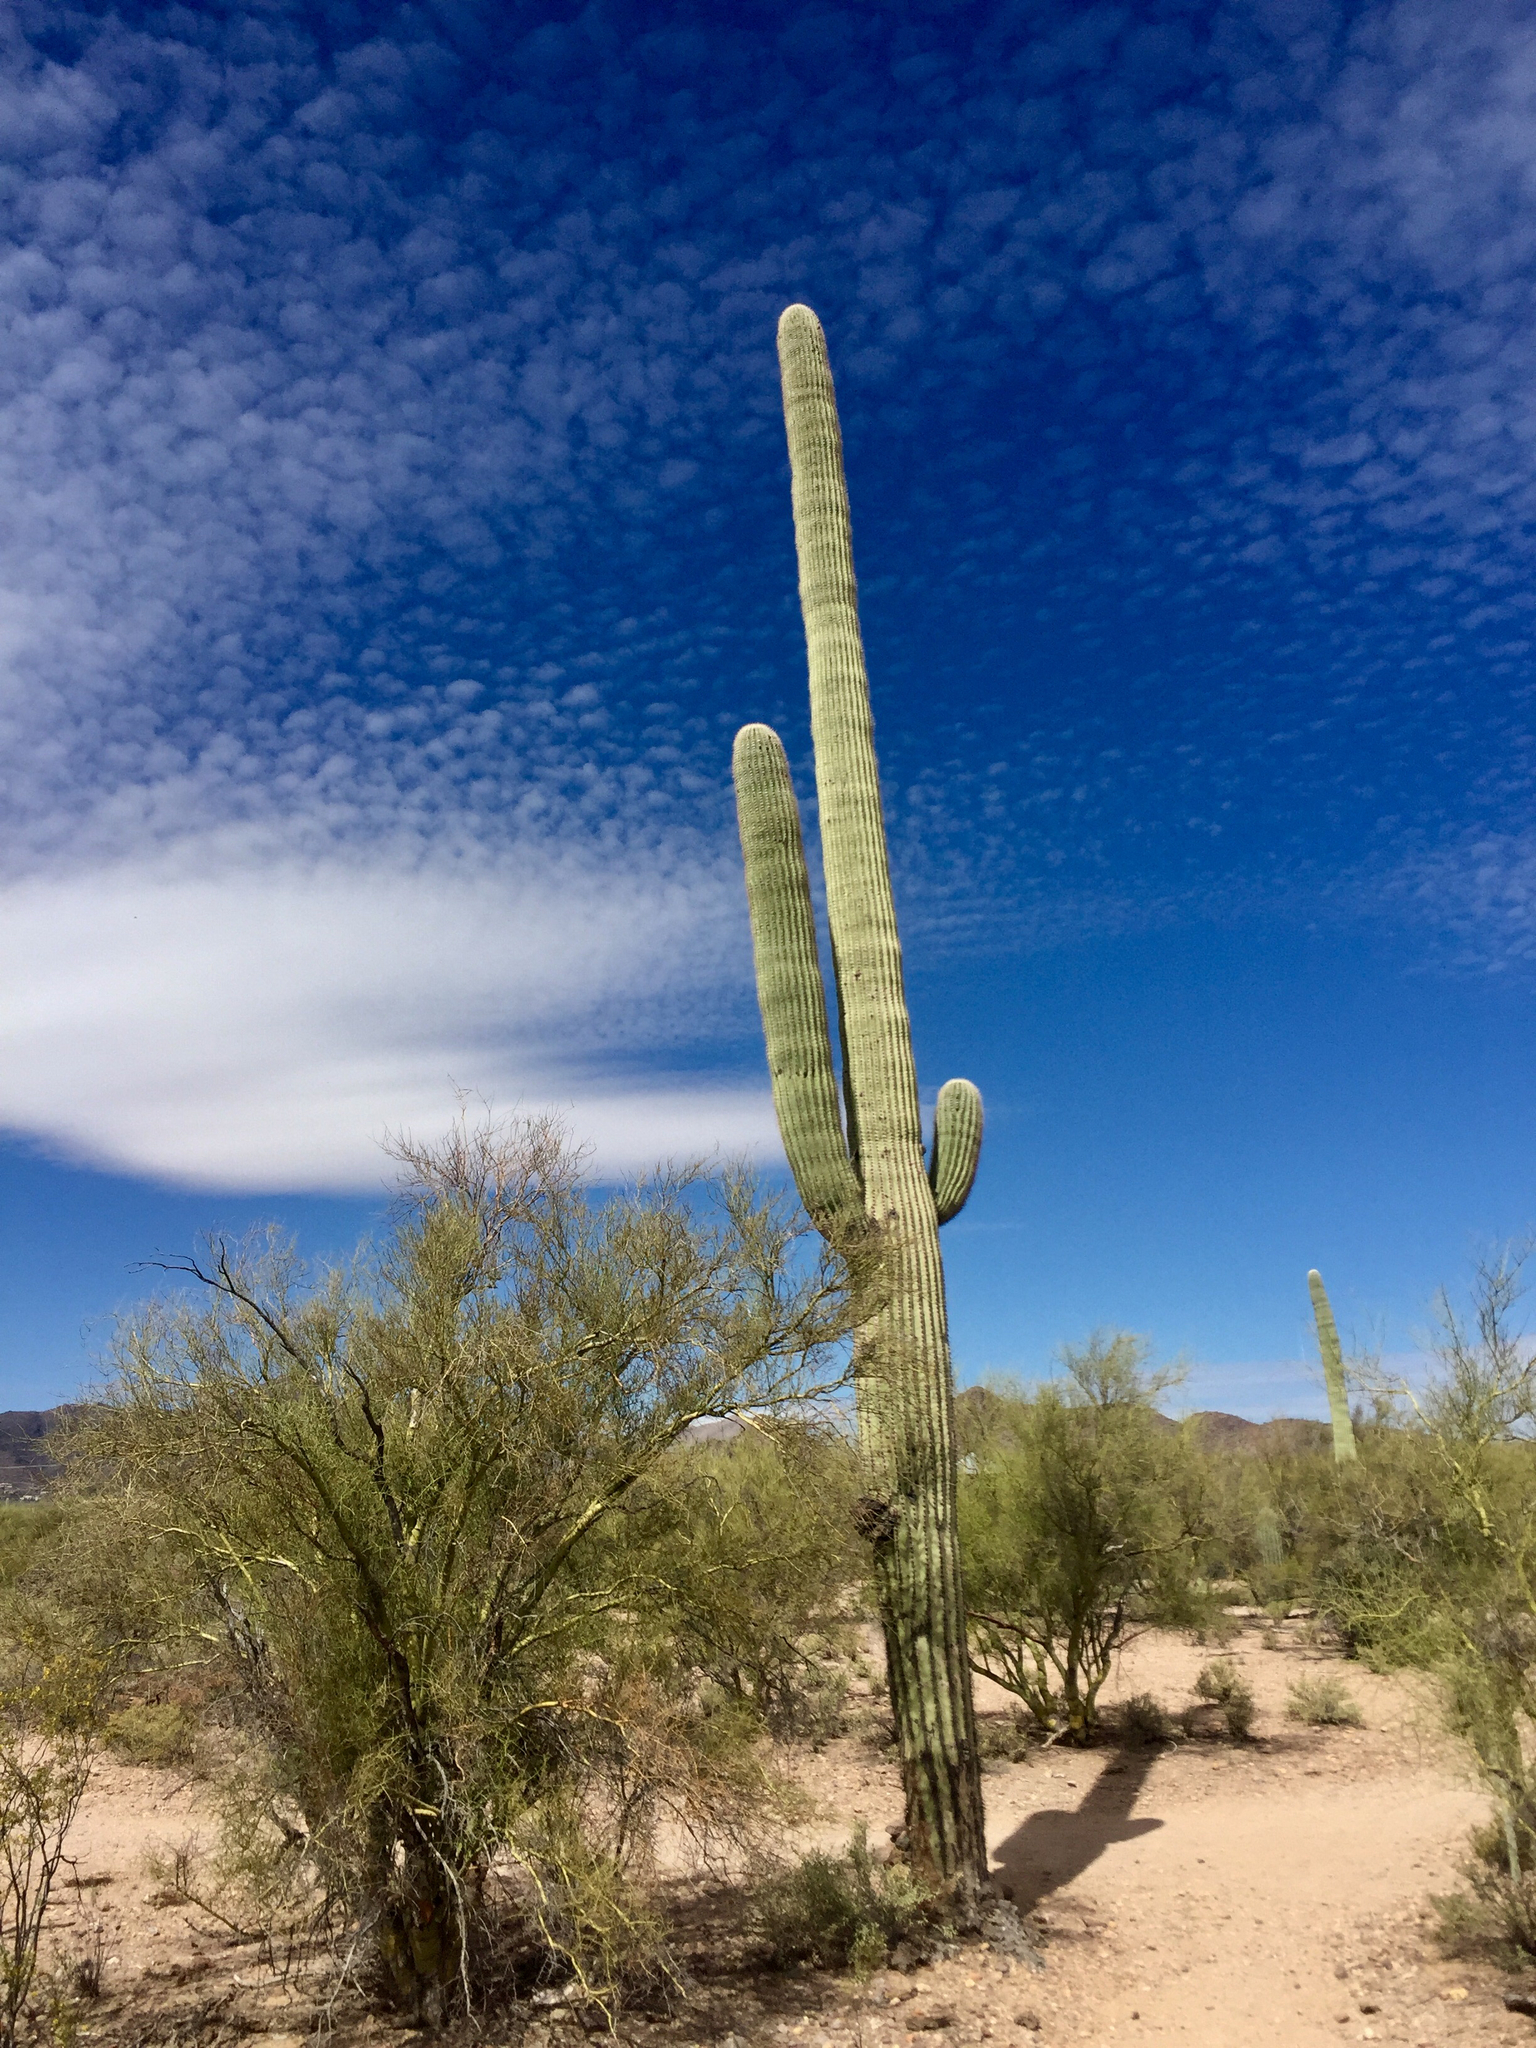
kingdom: Plantae
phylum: Tracheophyta
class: Magnoliopsida
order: Caryophyllales
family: Cactaceae
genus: Carnegiea
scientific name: Carnegiea gigantea
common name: Saguaro
